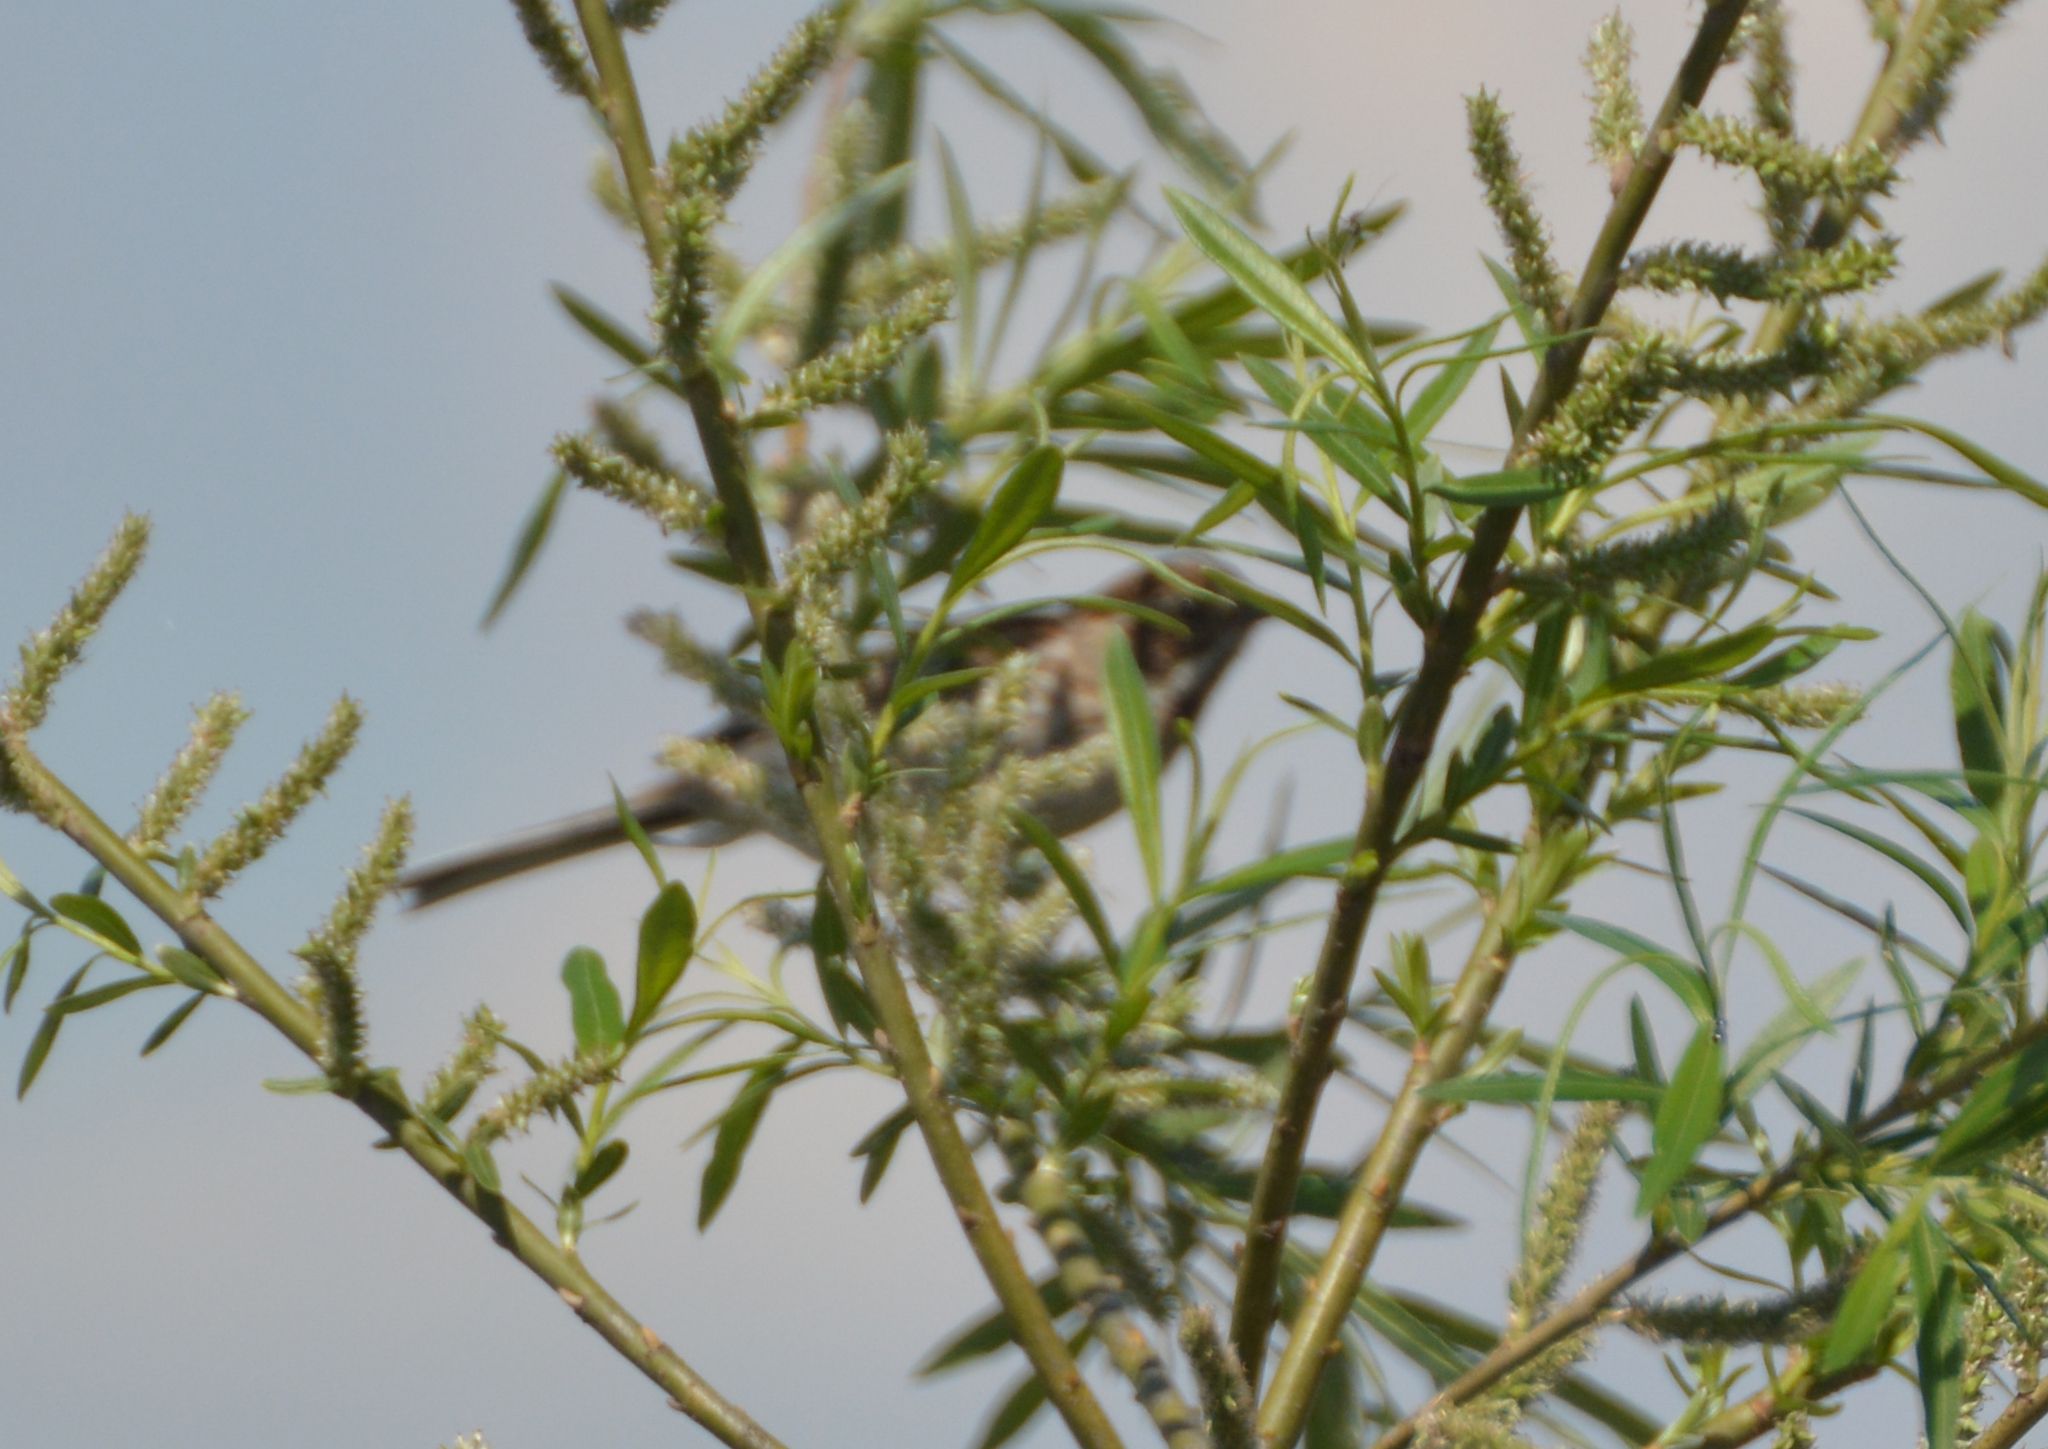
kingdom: Animalia
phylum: Chordata
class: Aves
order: Passeriformes
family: Emberizidae
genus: Emberiza
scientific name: Emberiza schoeniclus
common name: Reed bunting
